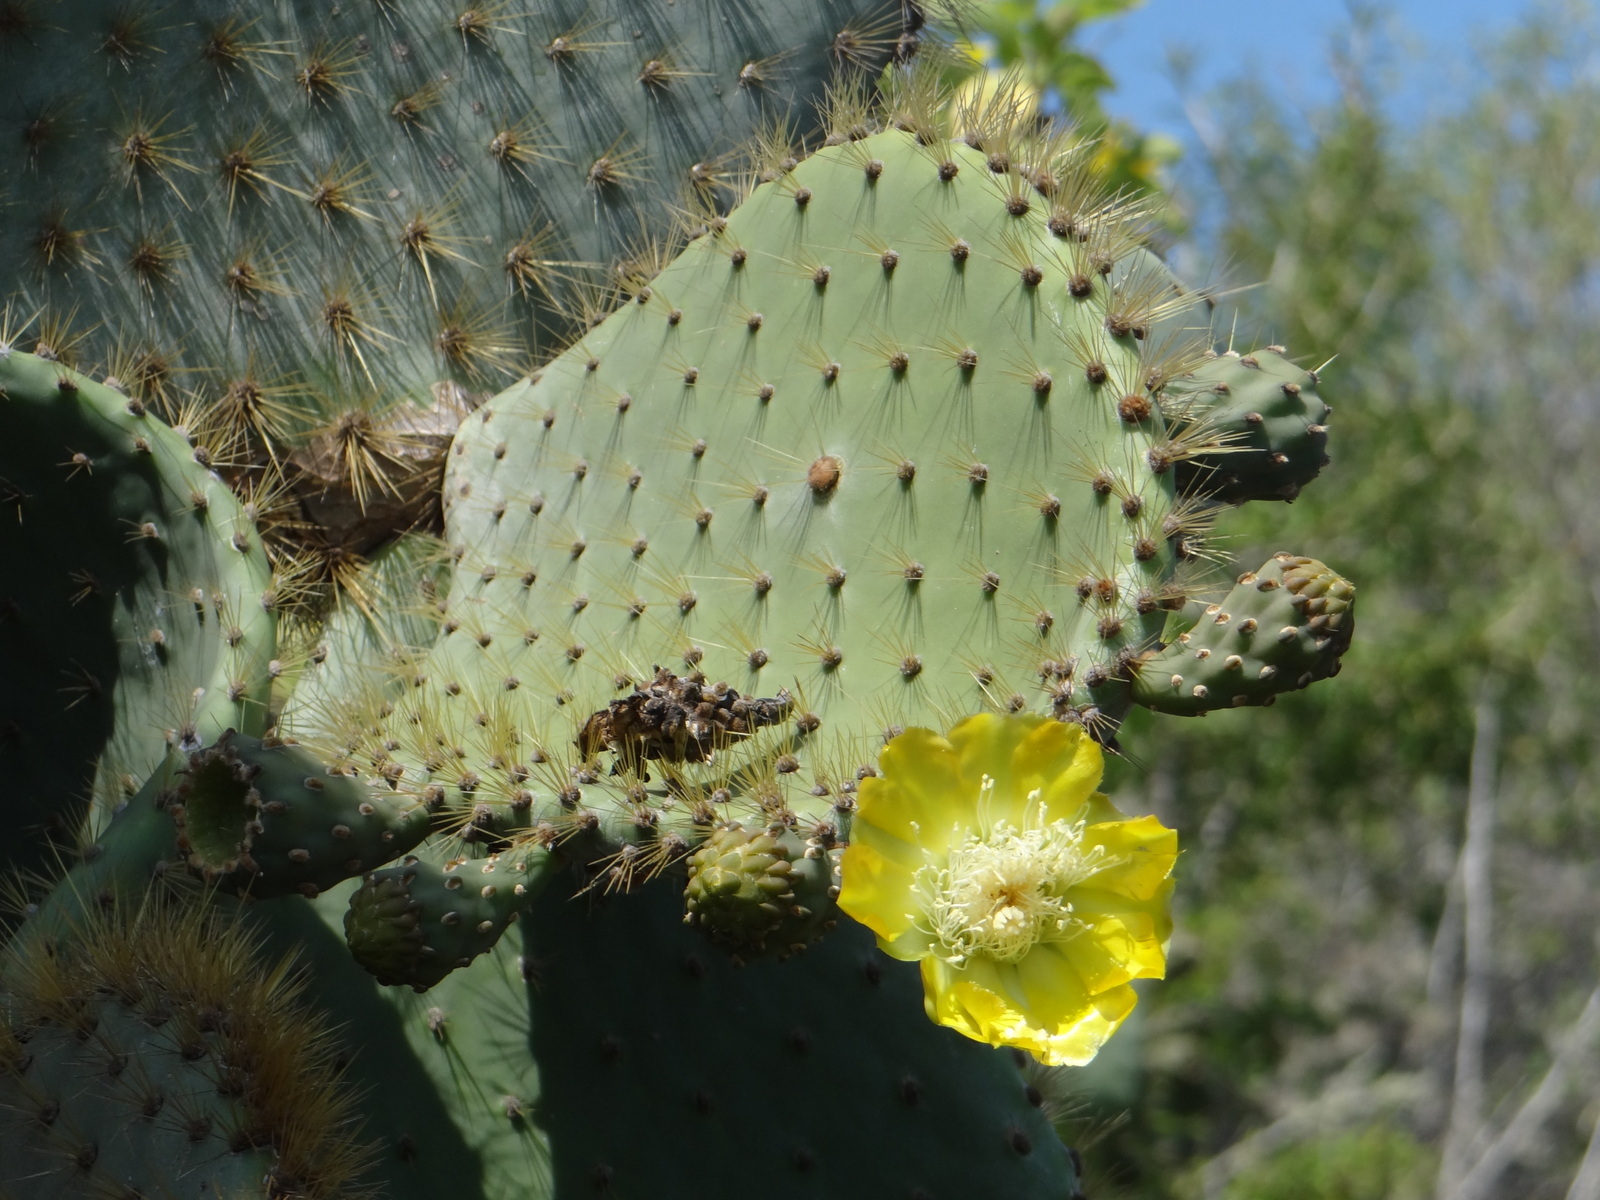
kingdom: Plantae
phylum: Tracheophyta
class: Magnoliopsida
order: Caryophyllales
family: Cactaceae
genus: Opuntia
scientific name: Opuntia galapageia
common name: Galápagos prickly pear
